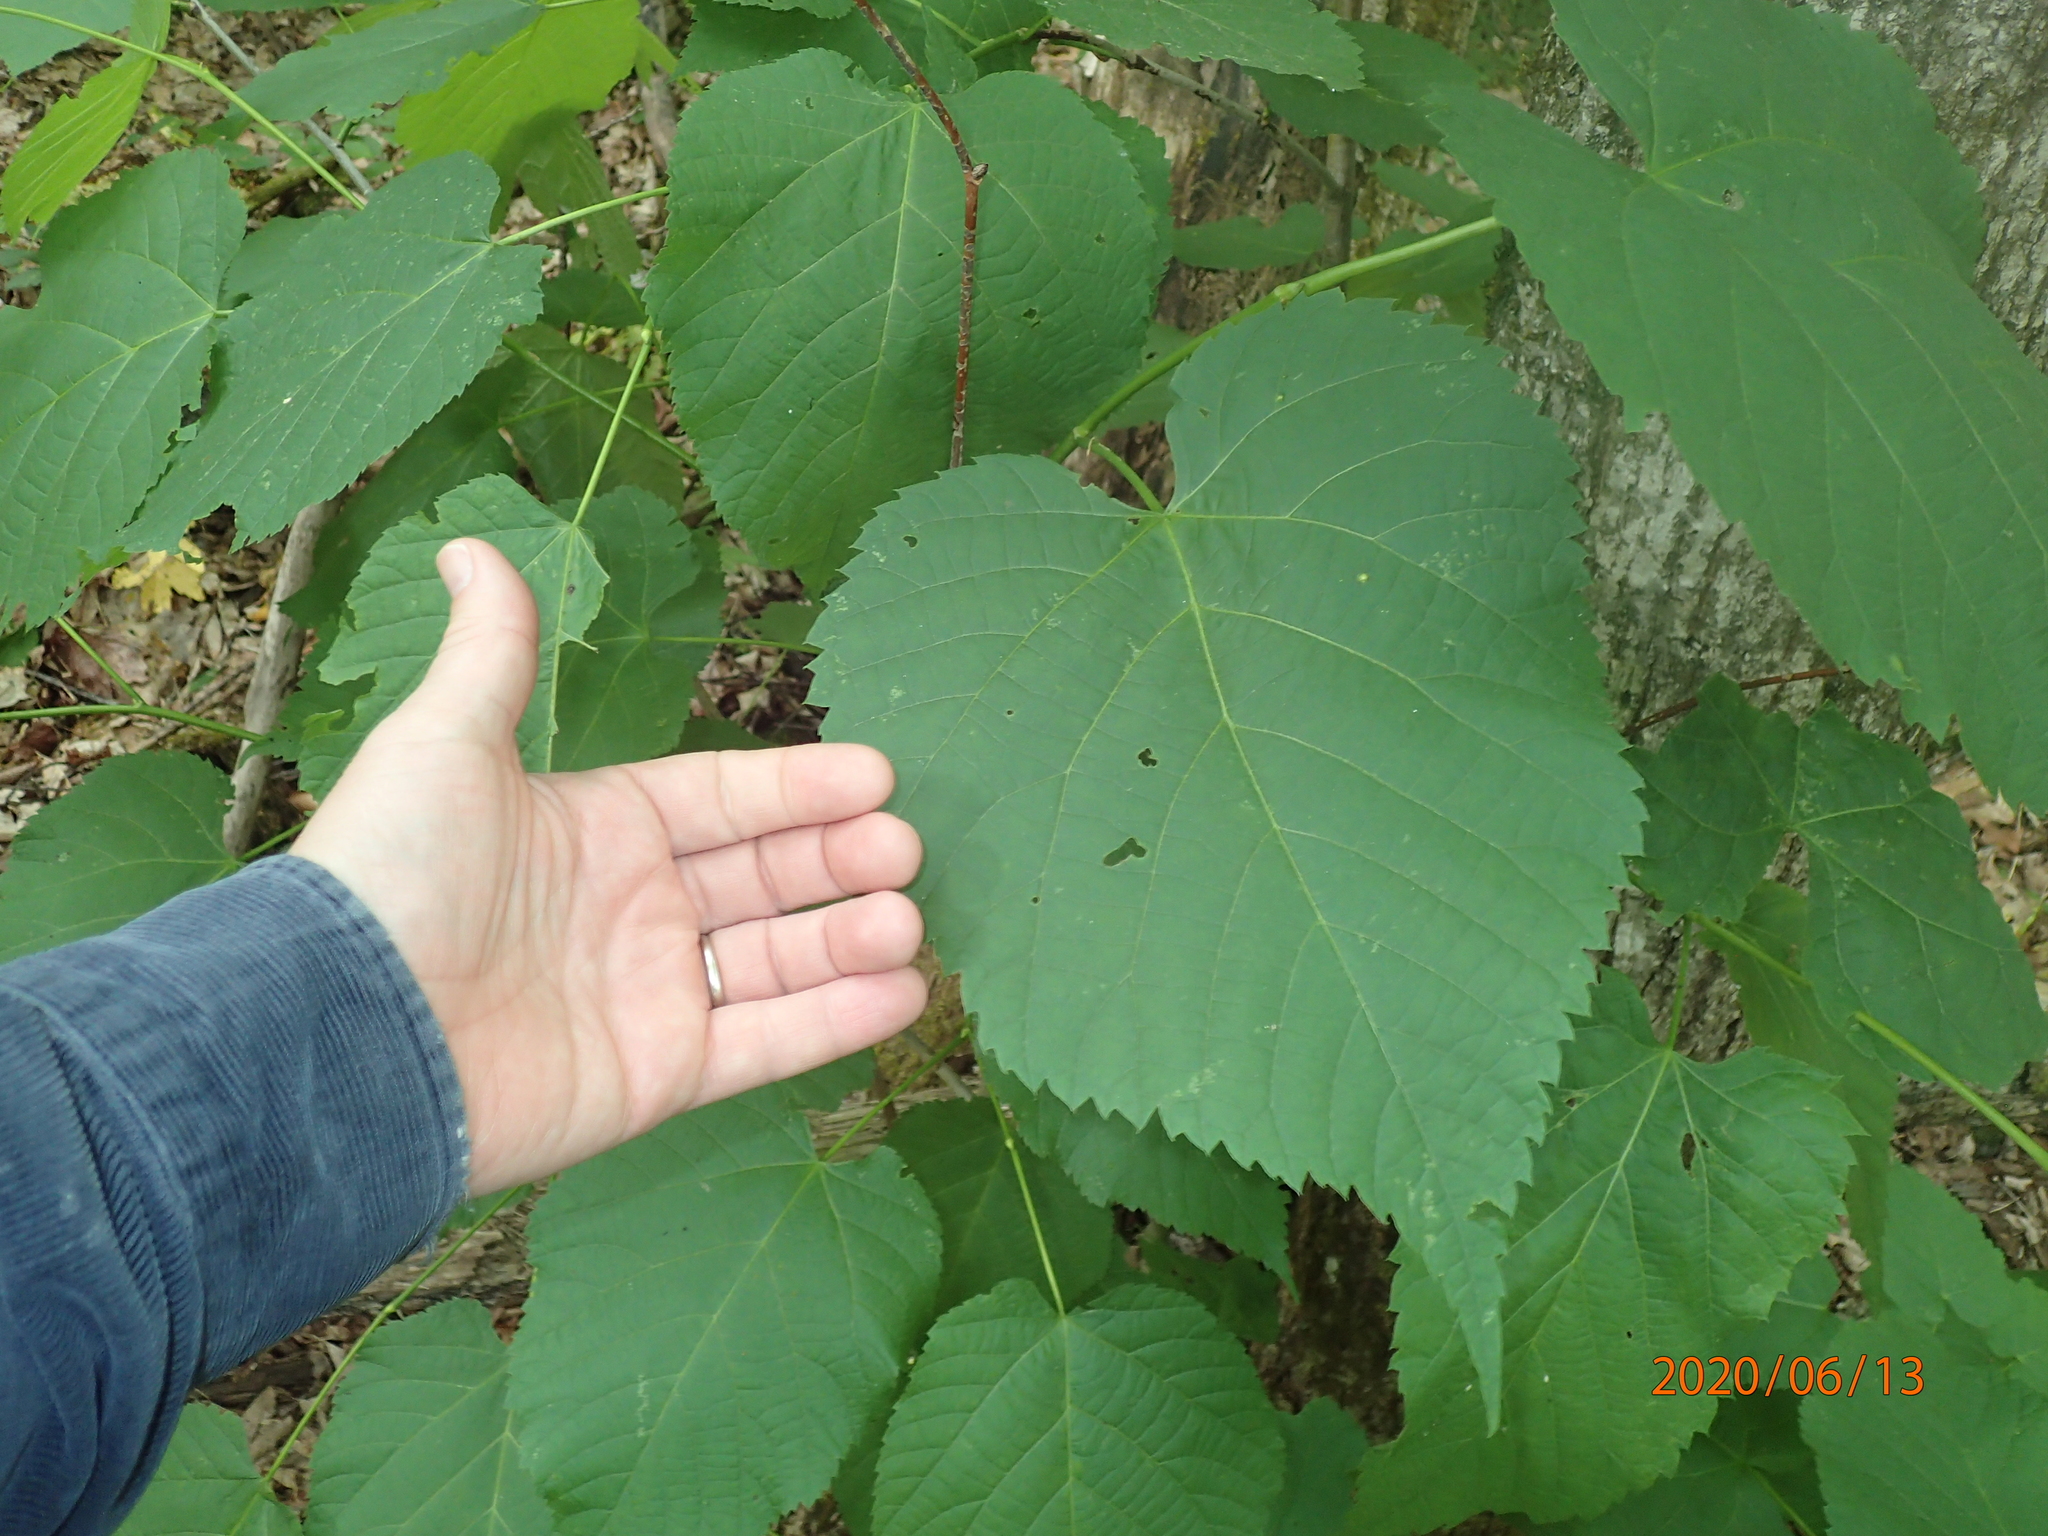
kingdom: Plantae
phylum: Tracheophyta
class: Magnoliopsida
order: Malvales
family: Malvaceae
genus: Tilia
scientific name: Tilia americana
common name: Basswood
